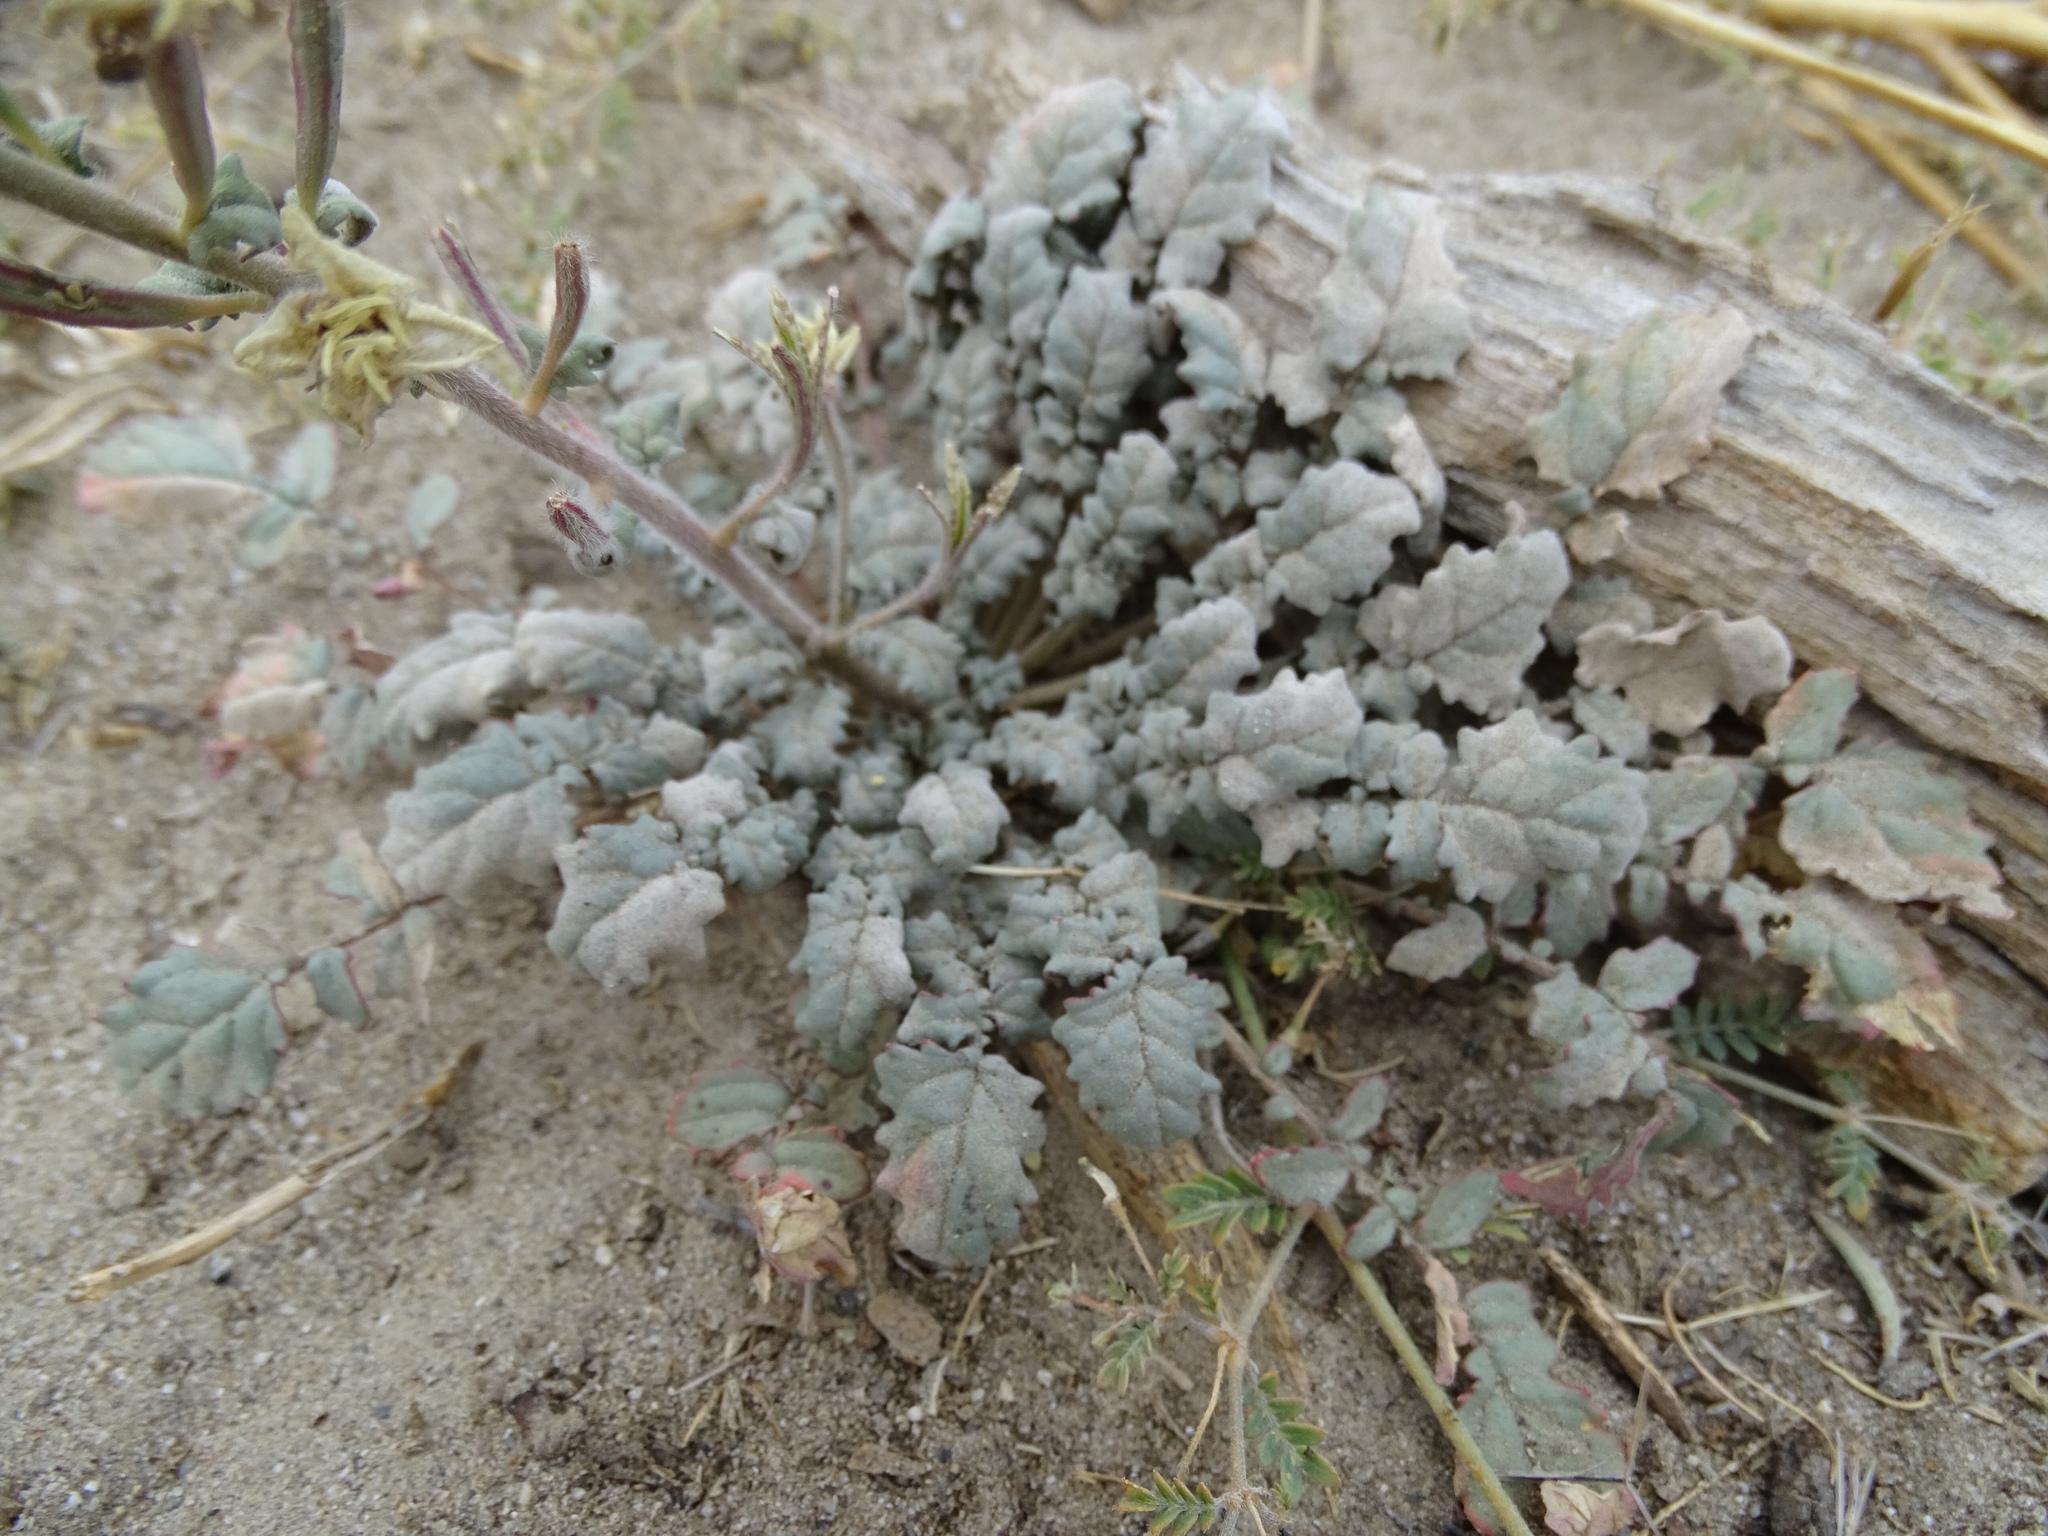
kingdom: Plantae
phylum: Tracheophyta
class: Magnoliopsida
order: Myrtales
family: Onagraceae
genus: Chylismia
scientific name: Chylismia claviformis
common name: Browneyes
